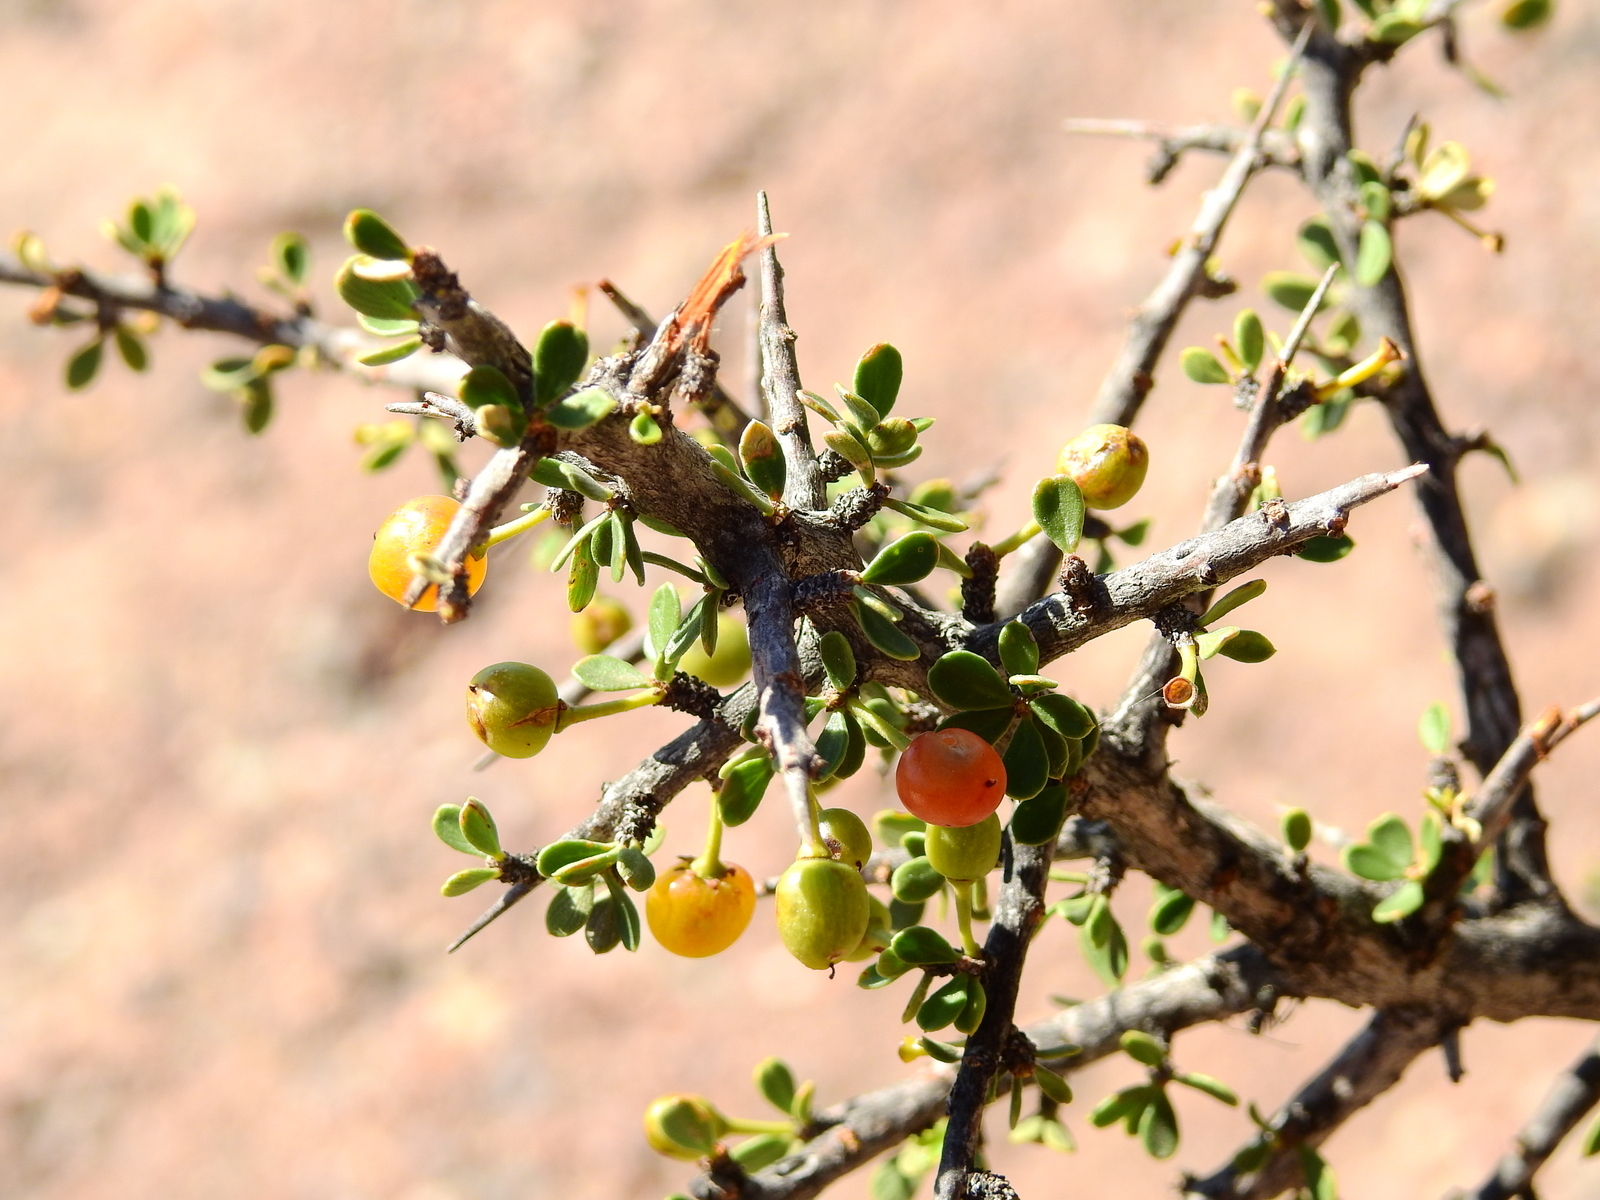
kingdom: Plantae
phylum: Tracheophyta
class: Magnoliopsida
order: Rosales
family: Rhamnaceae
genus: Condalia
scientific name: Condalia microphylla
